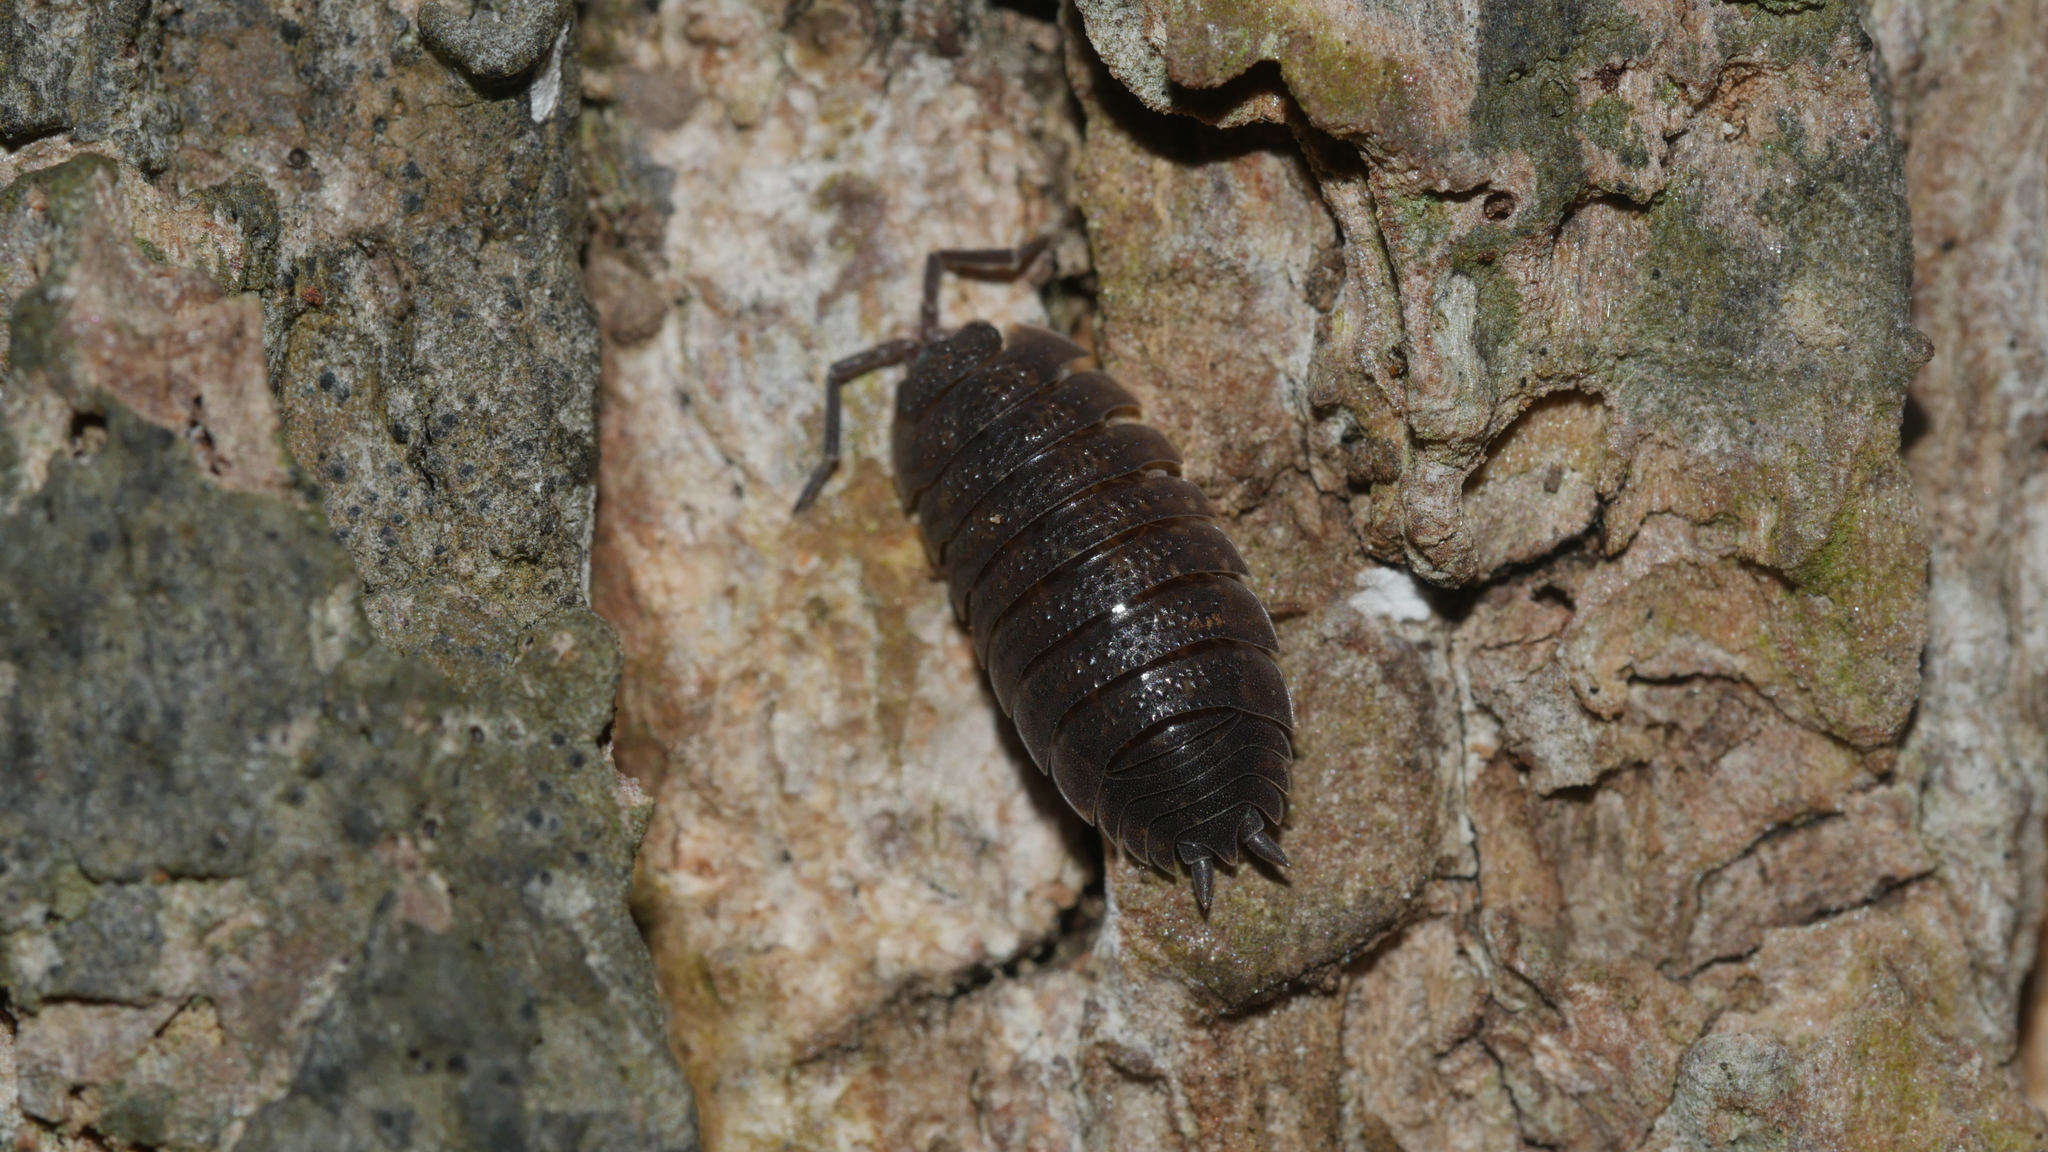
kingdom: Animalia
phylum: Arthropoda
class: Malacostraca
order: Isopoda
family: Porcellionidae
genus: Porcellio
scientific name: Porcellio scaber
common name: Common rough woodlouse
